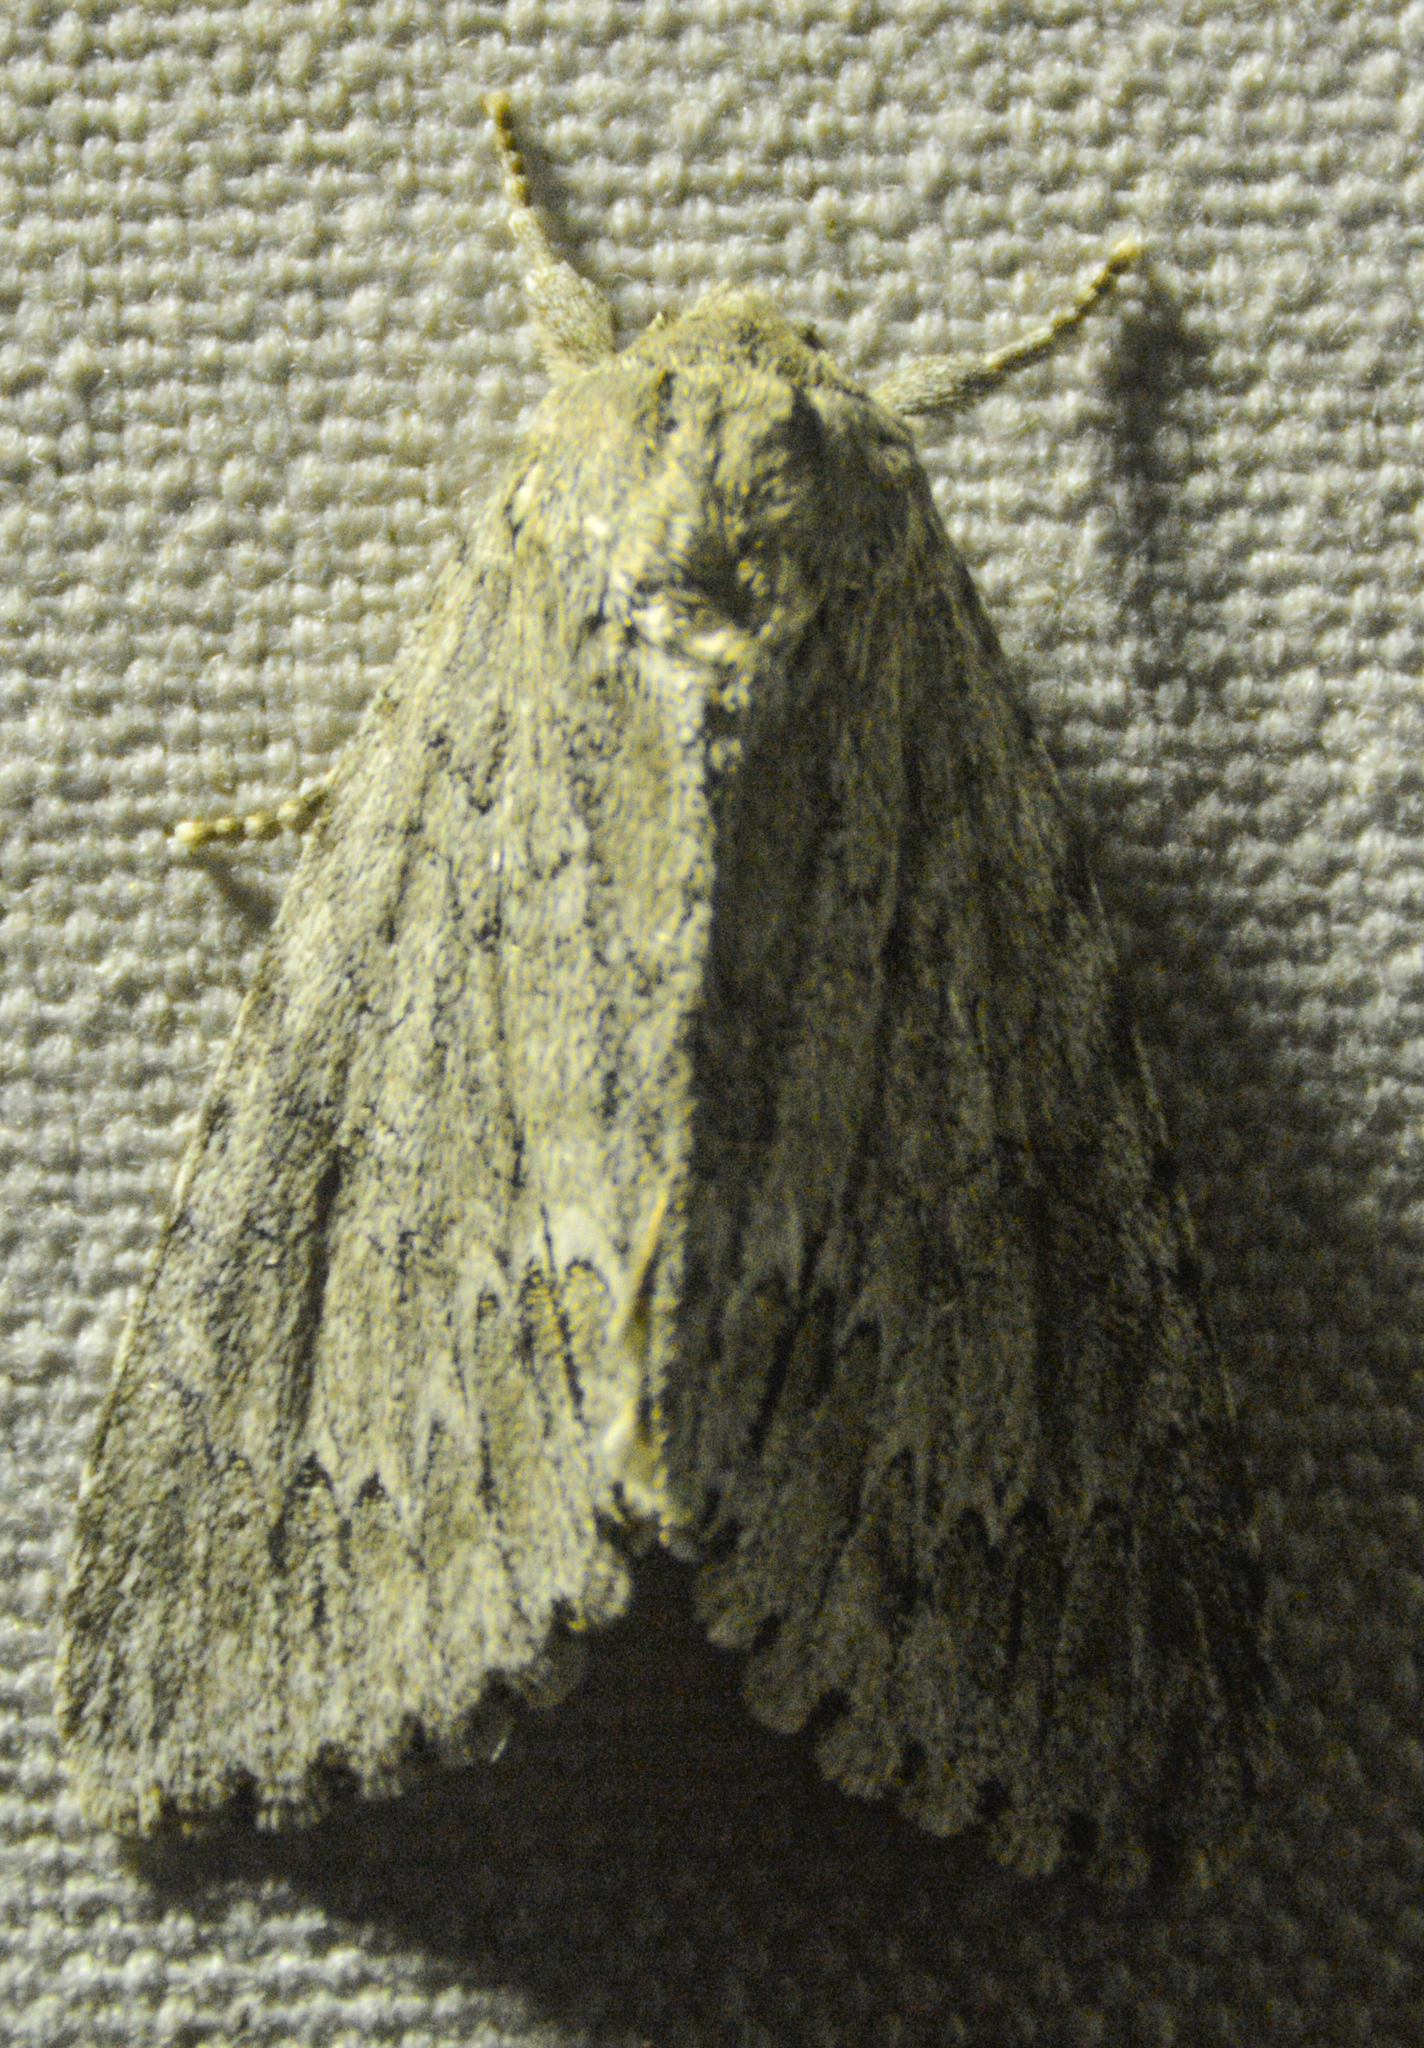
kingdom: Animalia
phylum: Arthropoda
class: Insecta
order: Lepidoptera
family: Noctuidae
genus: Acronicta
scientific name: Acronicta americana
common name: American dagger
